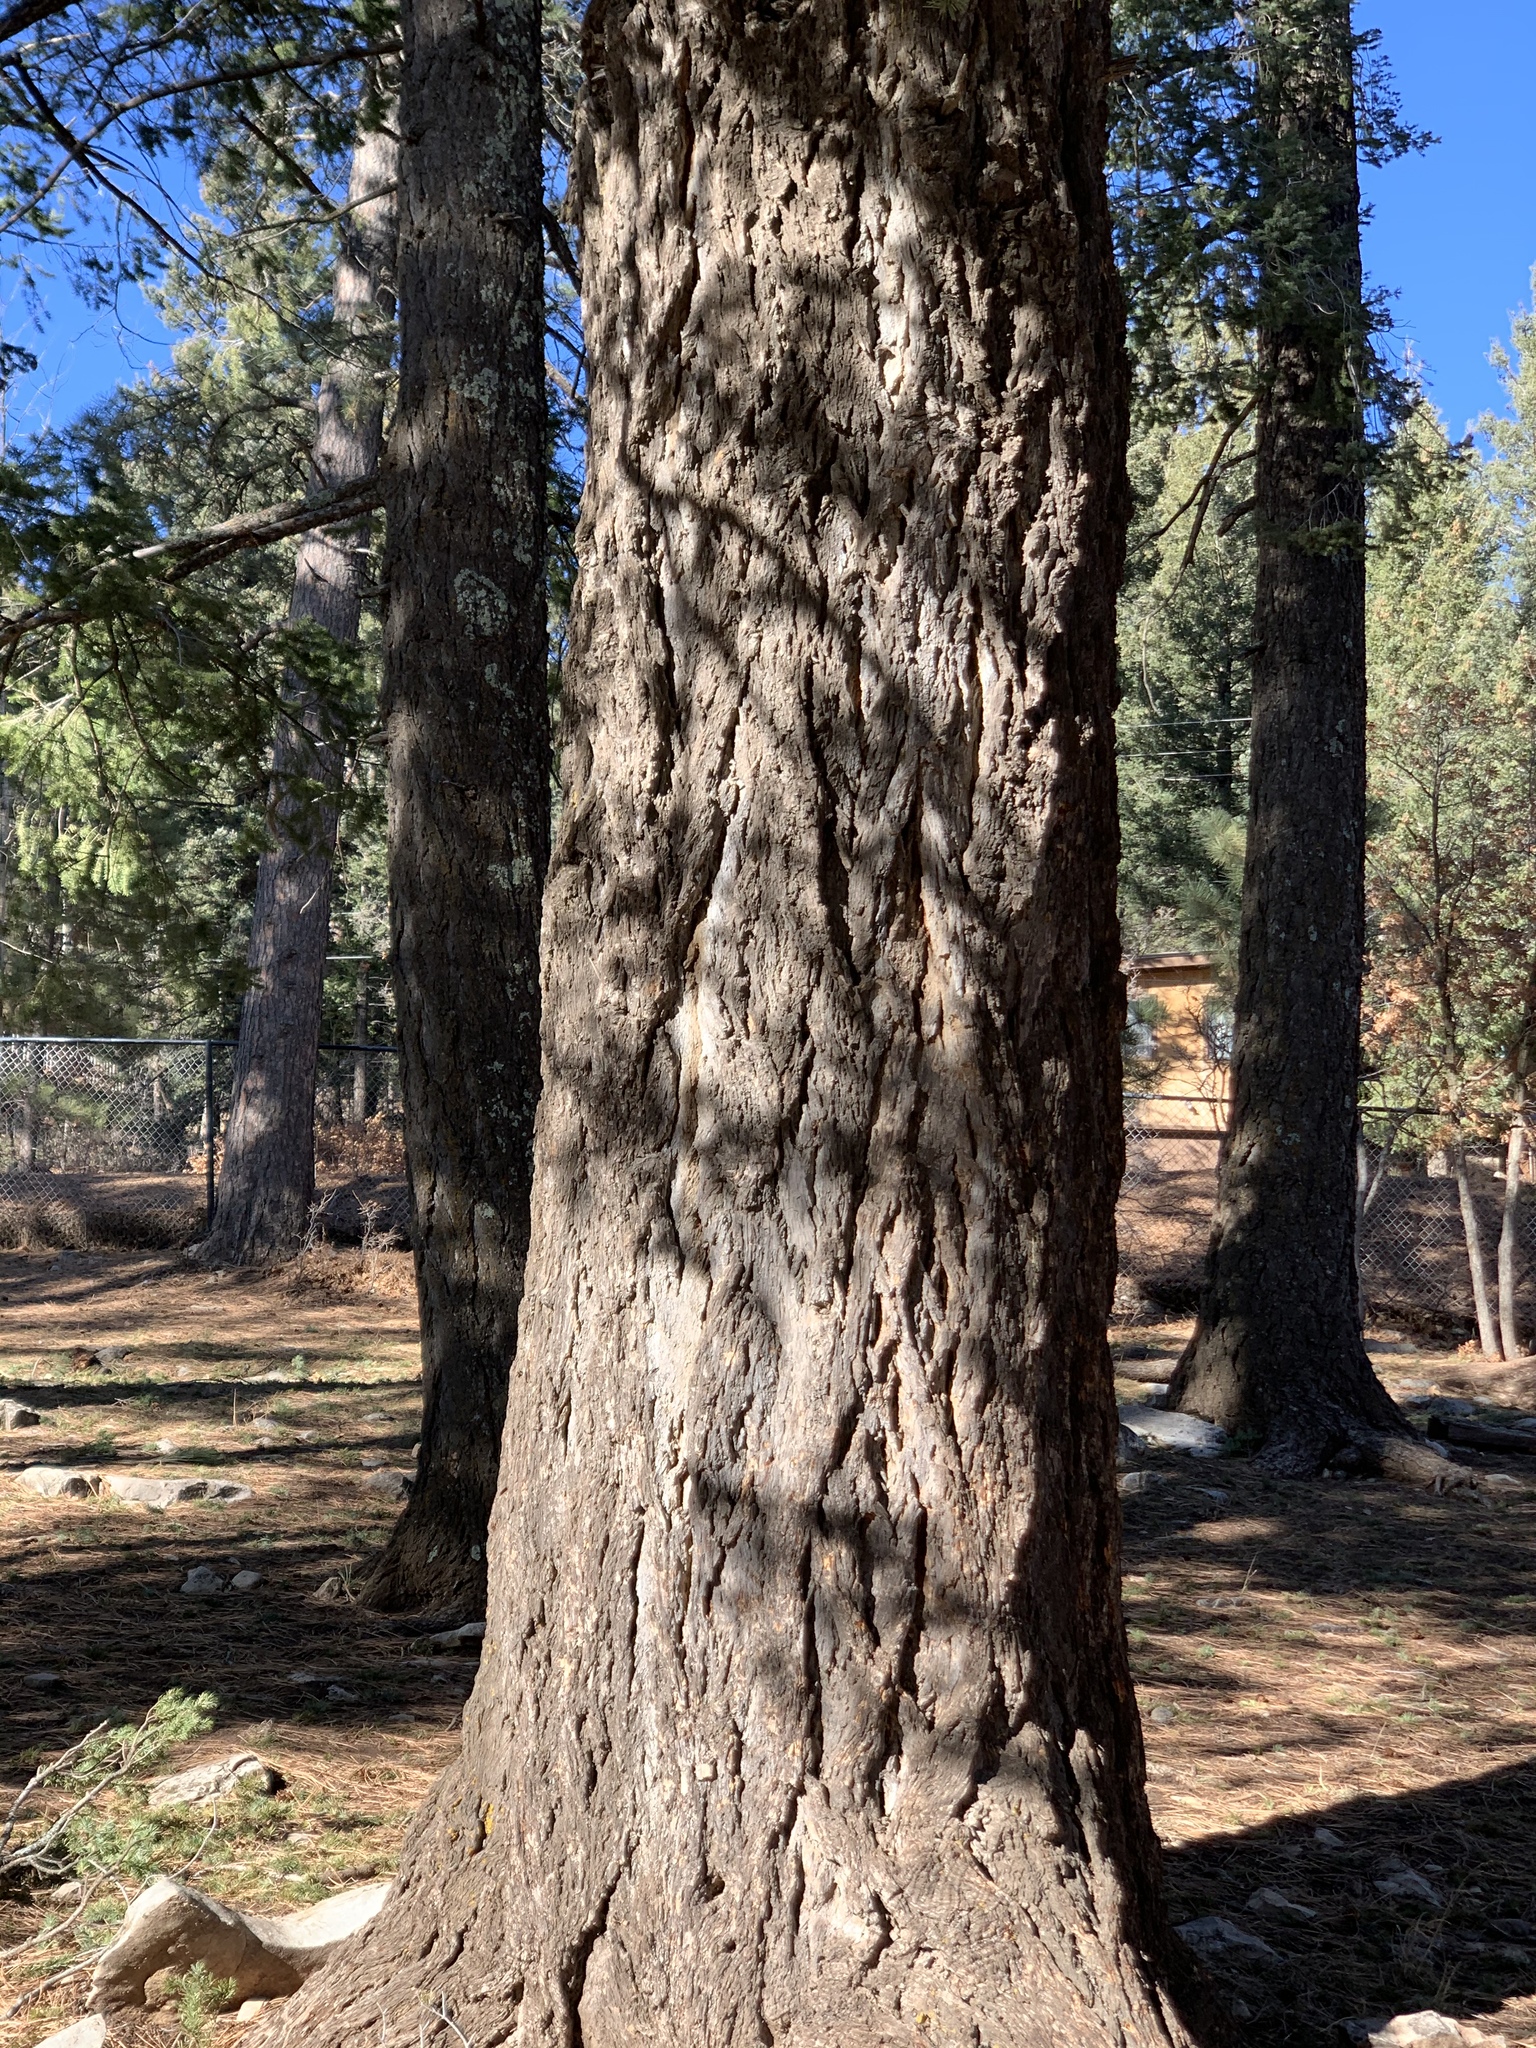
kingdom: Plantae
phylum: Tracheophyta
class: Pinopsida
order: Pinales
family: Pinaceae
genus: Pseudotsuga
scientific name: Pseudotsuga menziesii
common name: Douglas fir
